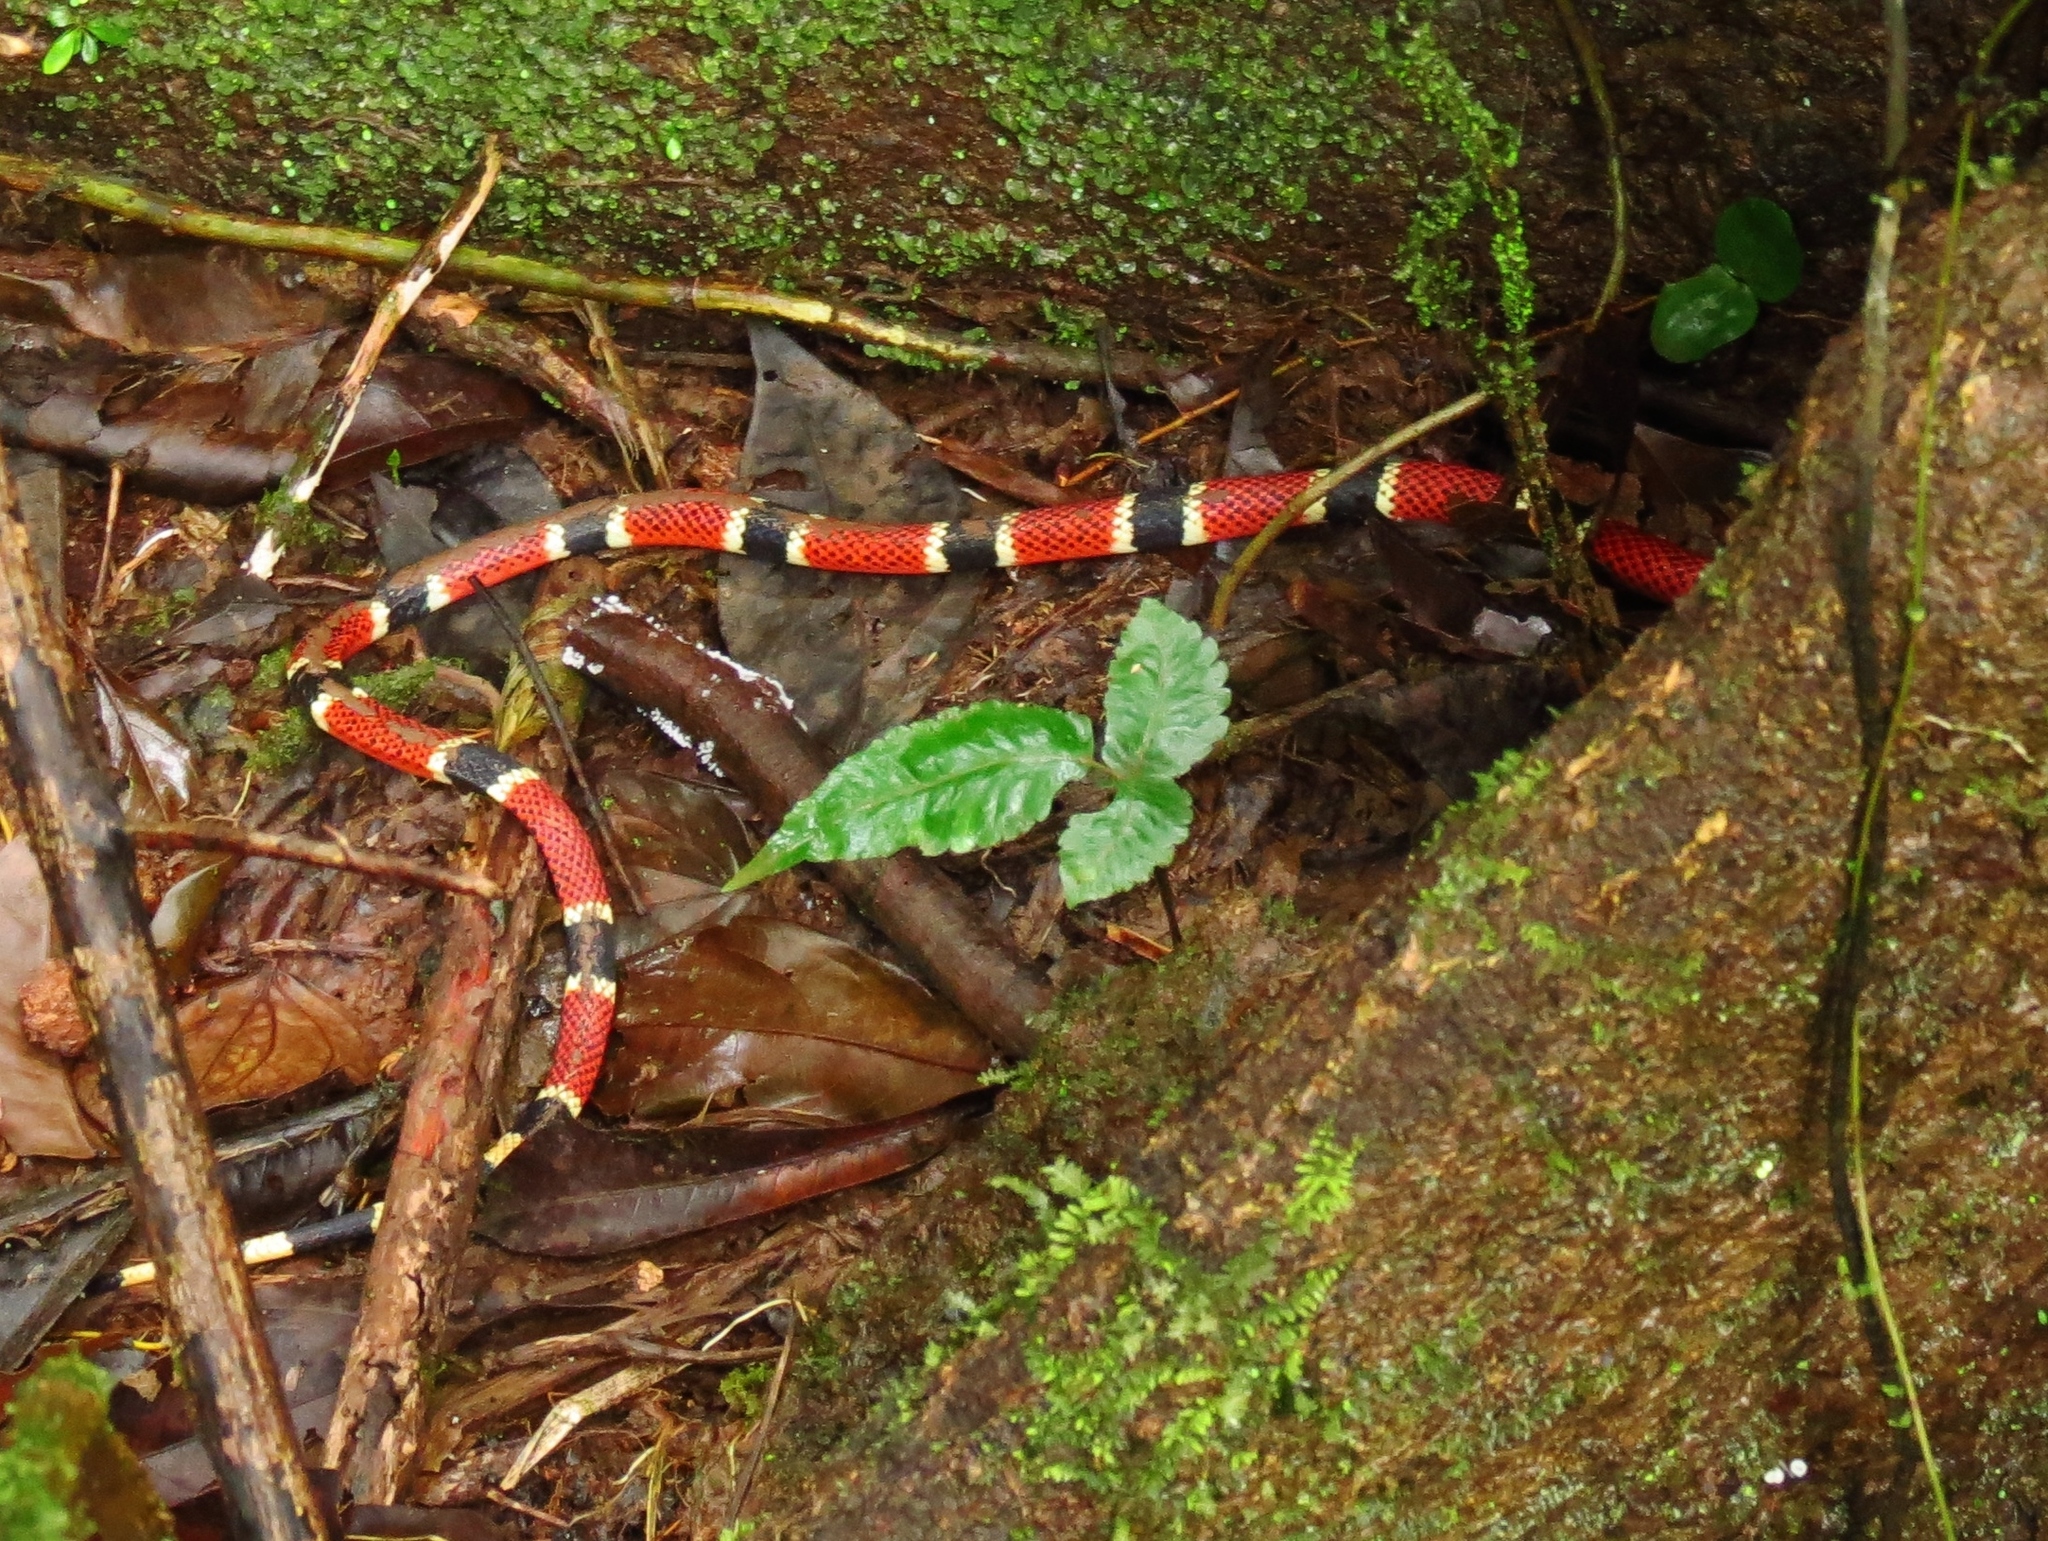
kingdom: Animalia
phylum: Chordata
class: Squamata
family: Elapidae
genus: Micrurus
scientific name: Micrurus alleni
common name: Allen's coral snake
